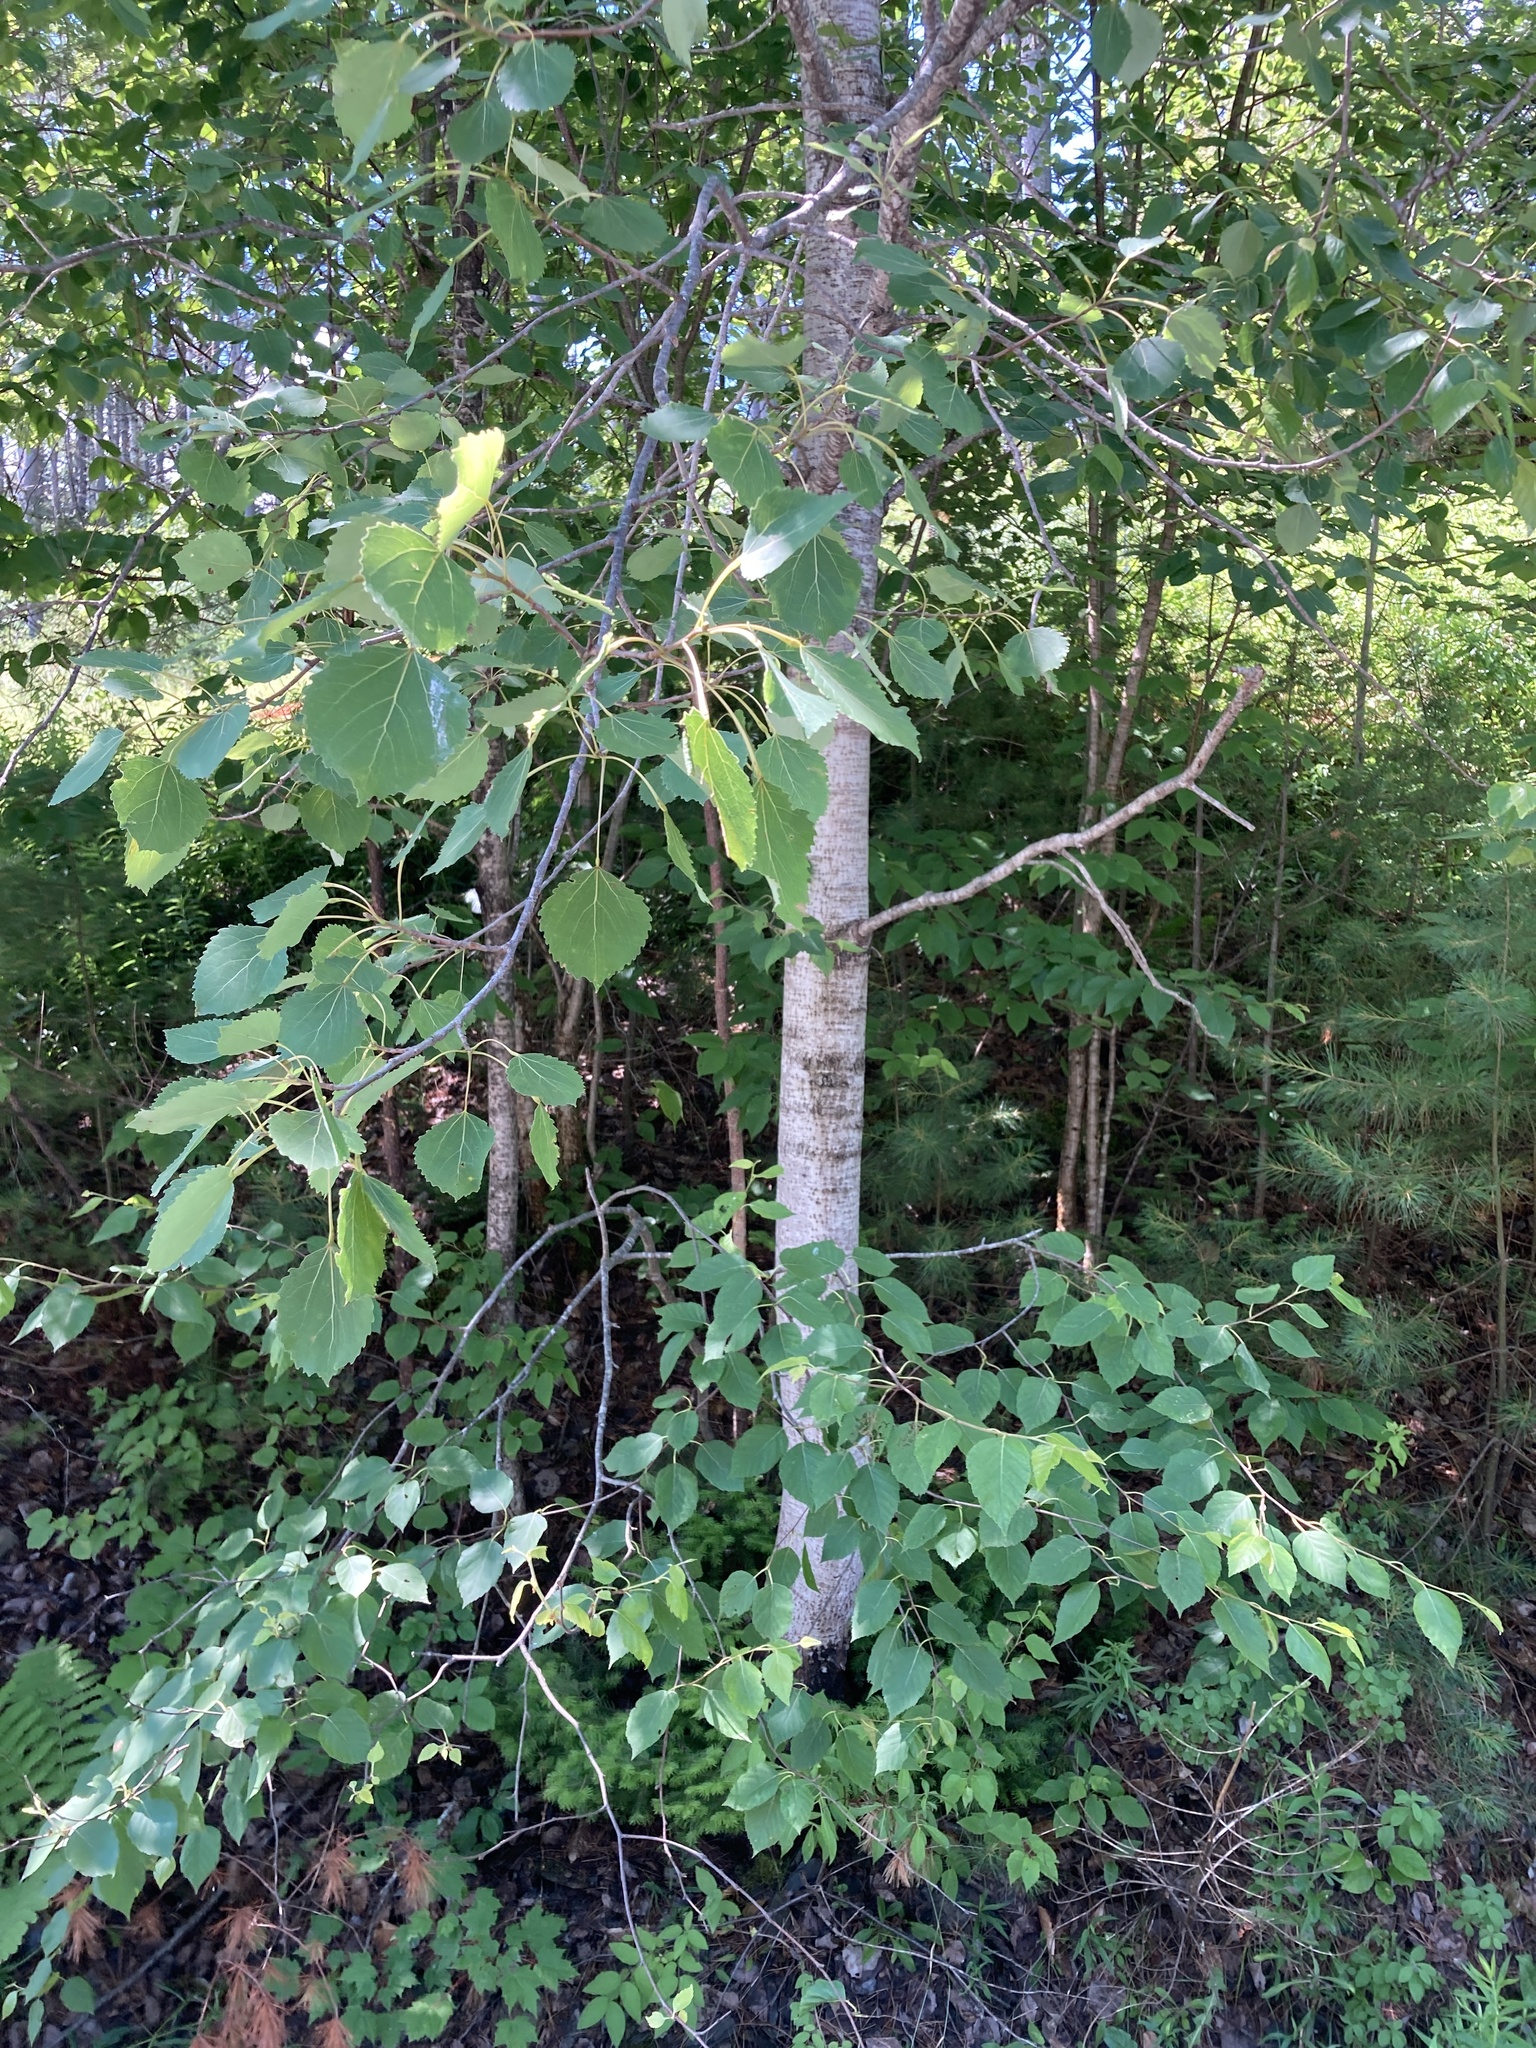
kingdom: Plantae
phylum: Tracheophyta
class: Magnoliopsida
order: Malpighiales
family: Salicaceae
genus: Populus
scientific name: Populus grandidentata
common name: Bigtooth aspen
